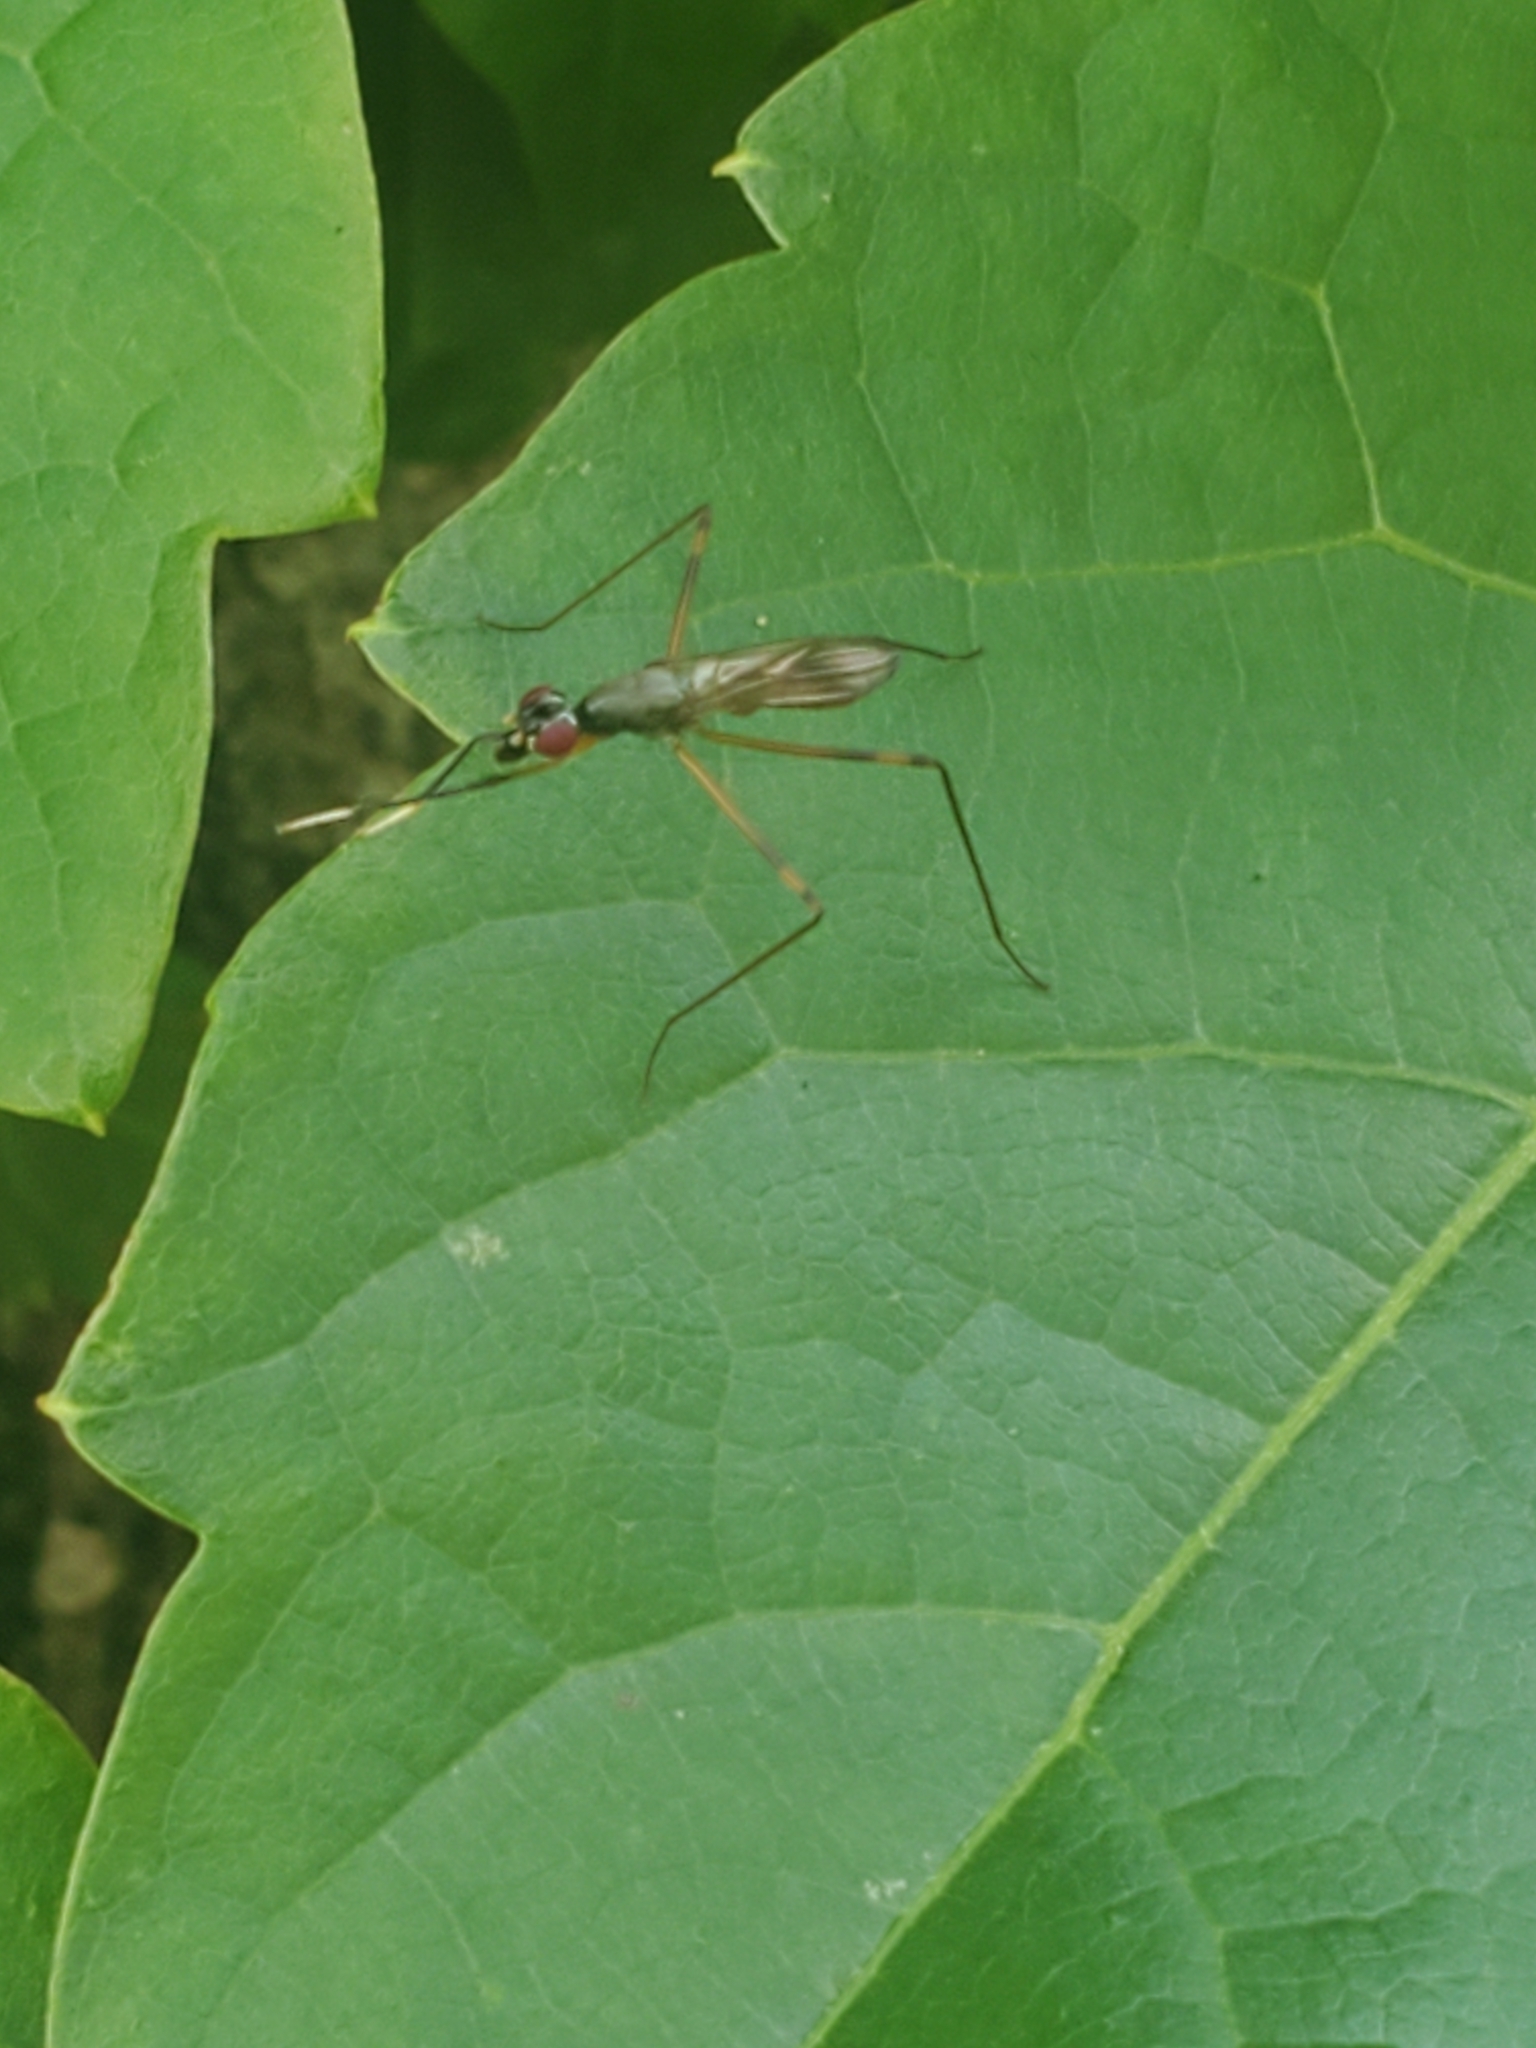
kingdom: Animalia
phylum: Arthropoda
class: Insecta
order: Diptera
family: Micropezidae
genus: Rainieria
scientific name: Rainieria antennaepes
